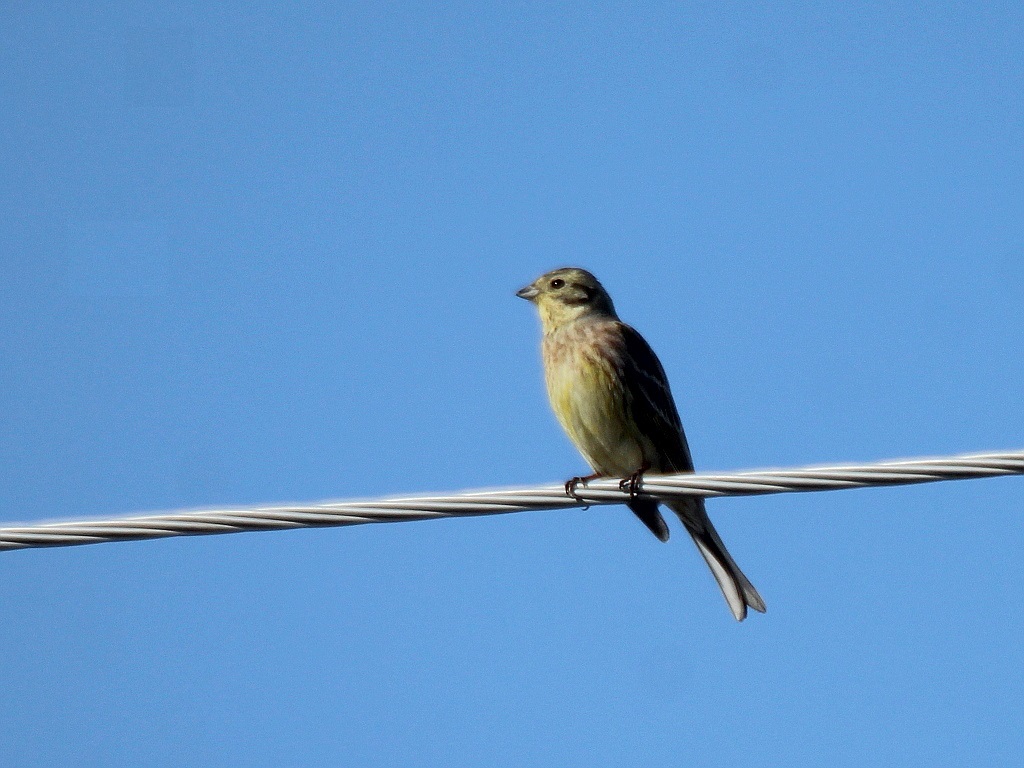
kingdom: Animalia
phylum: Chordata
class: Aves
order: Passeriformes
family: Emberizidae
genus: Emberiza
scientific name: Emberiza citrinella
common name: Yellowhammer
